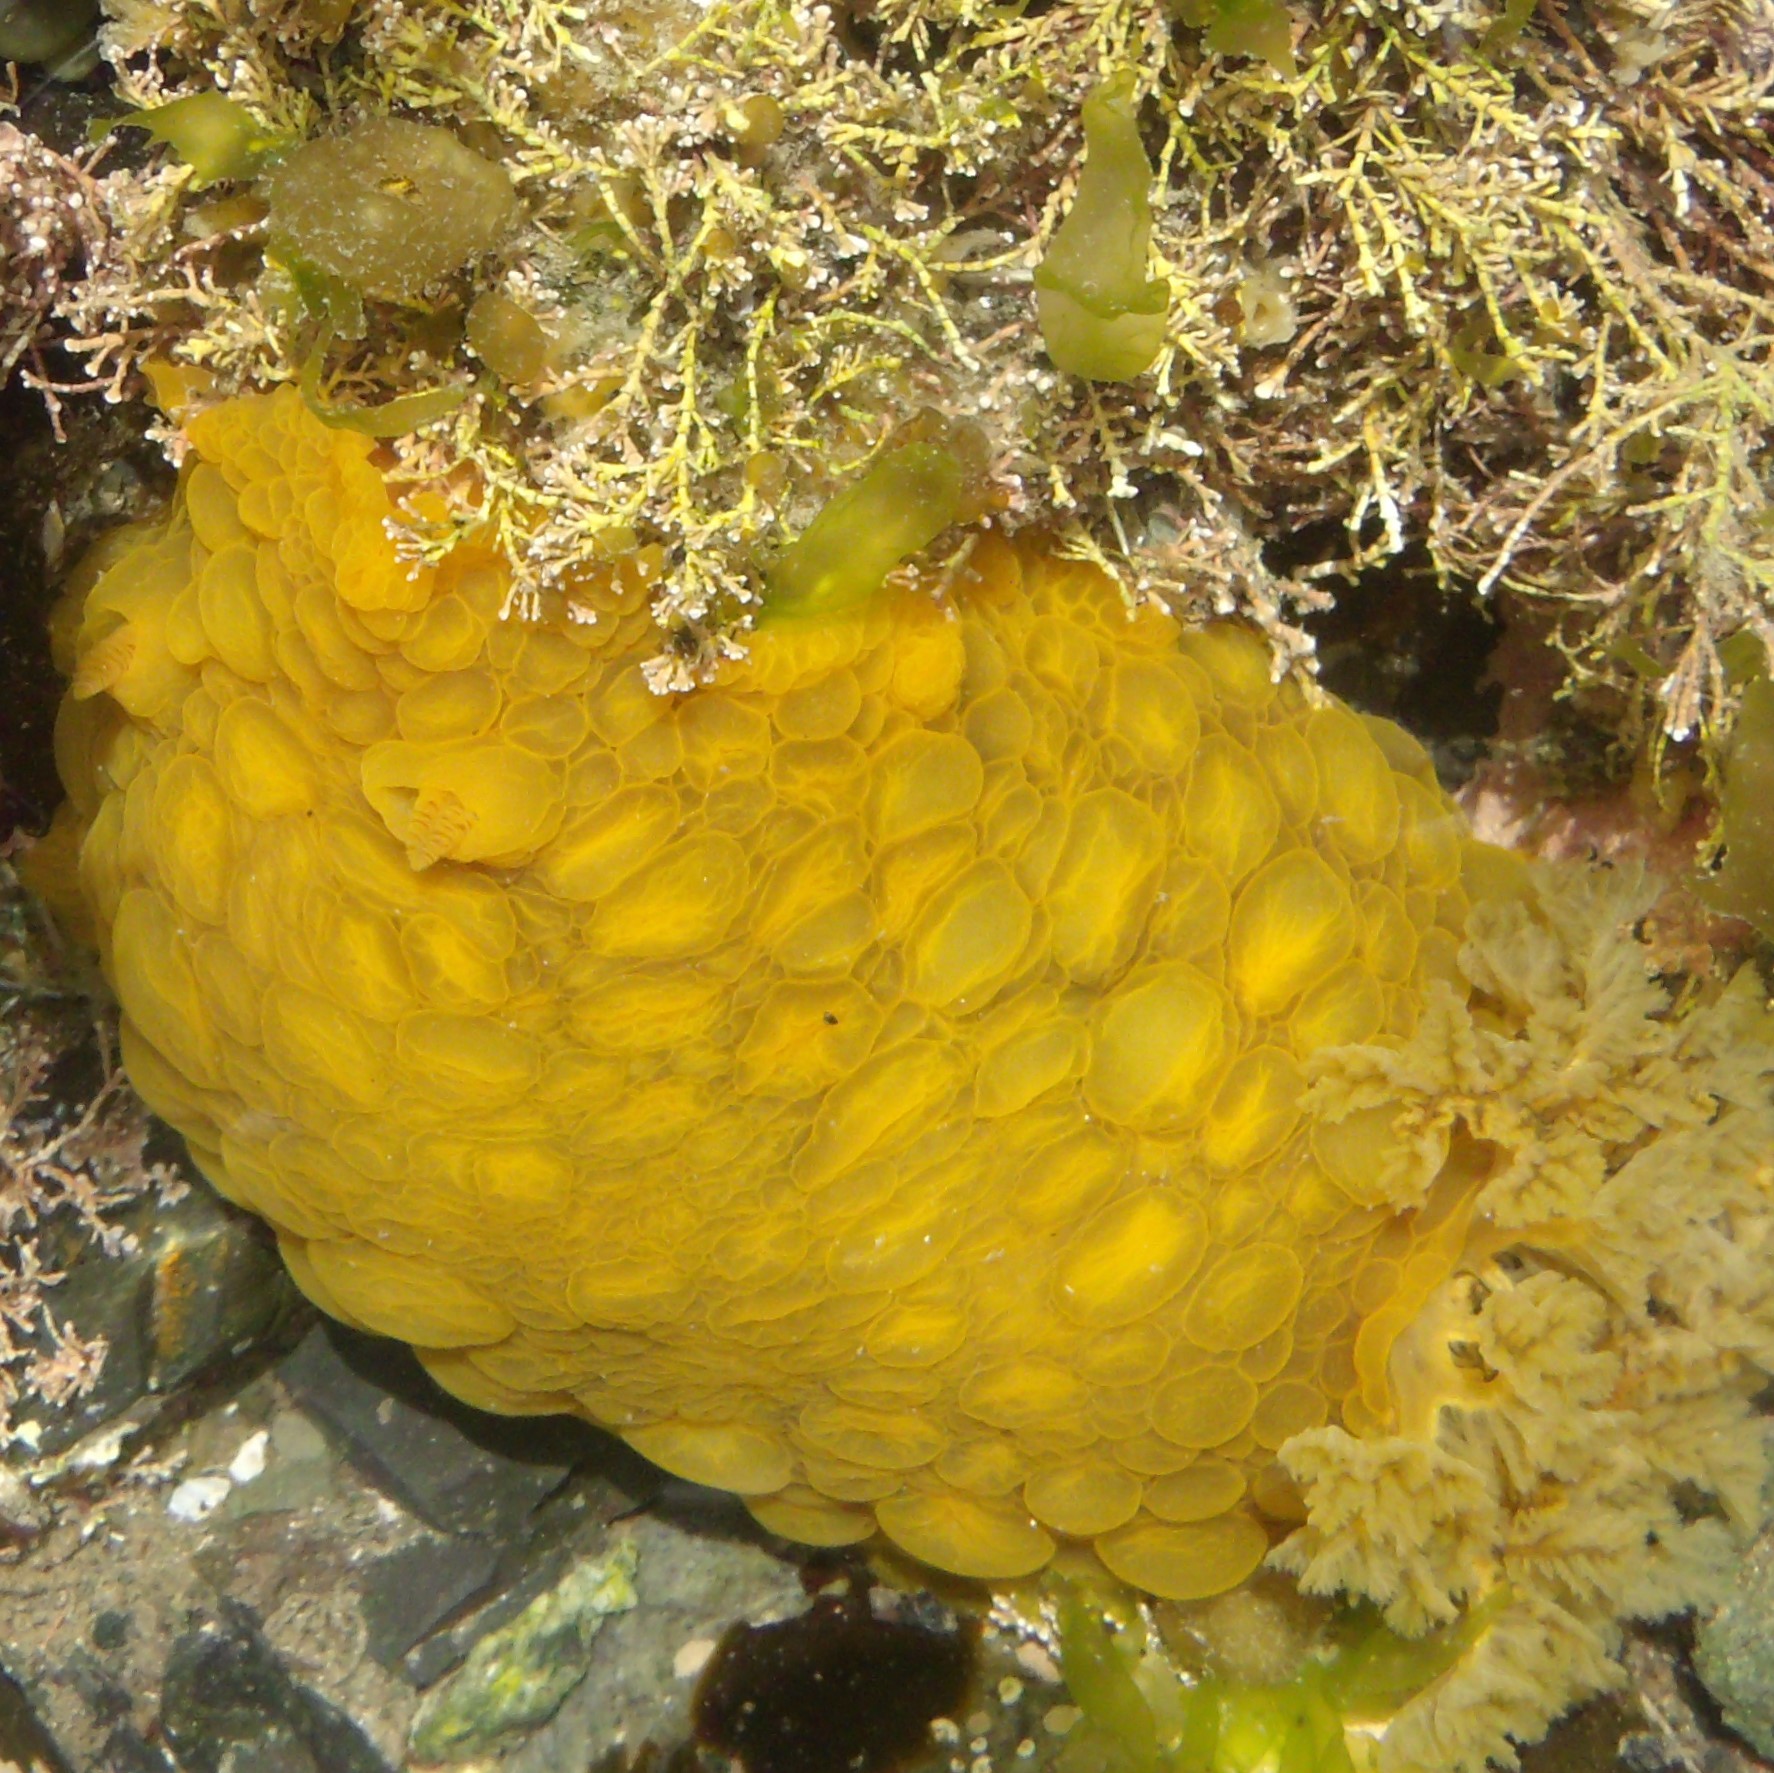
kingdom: Animalia
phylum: Mollusca
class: Gastropoda
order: Nudibranchia
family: Dorididae
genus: Doris
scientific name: Doris wellingtonensis
